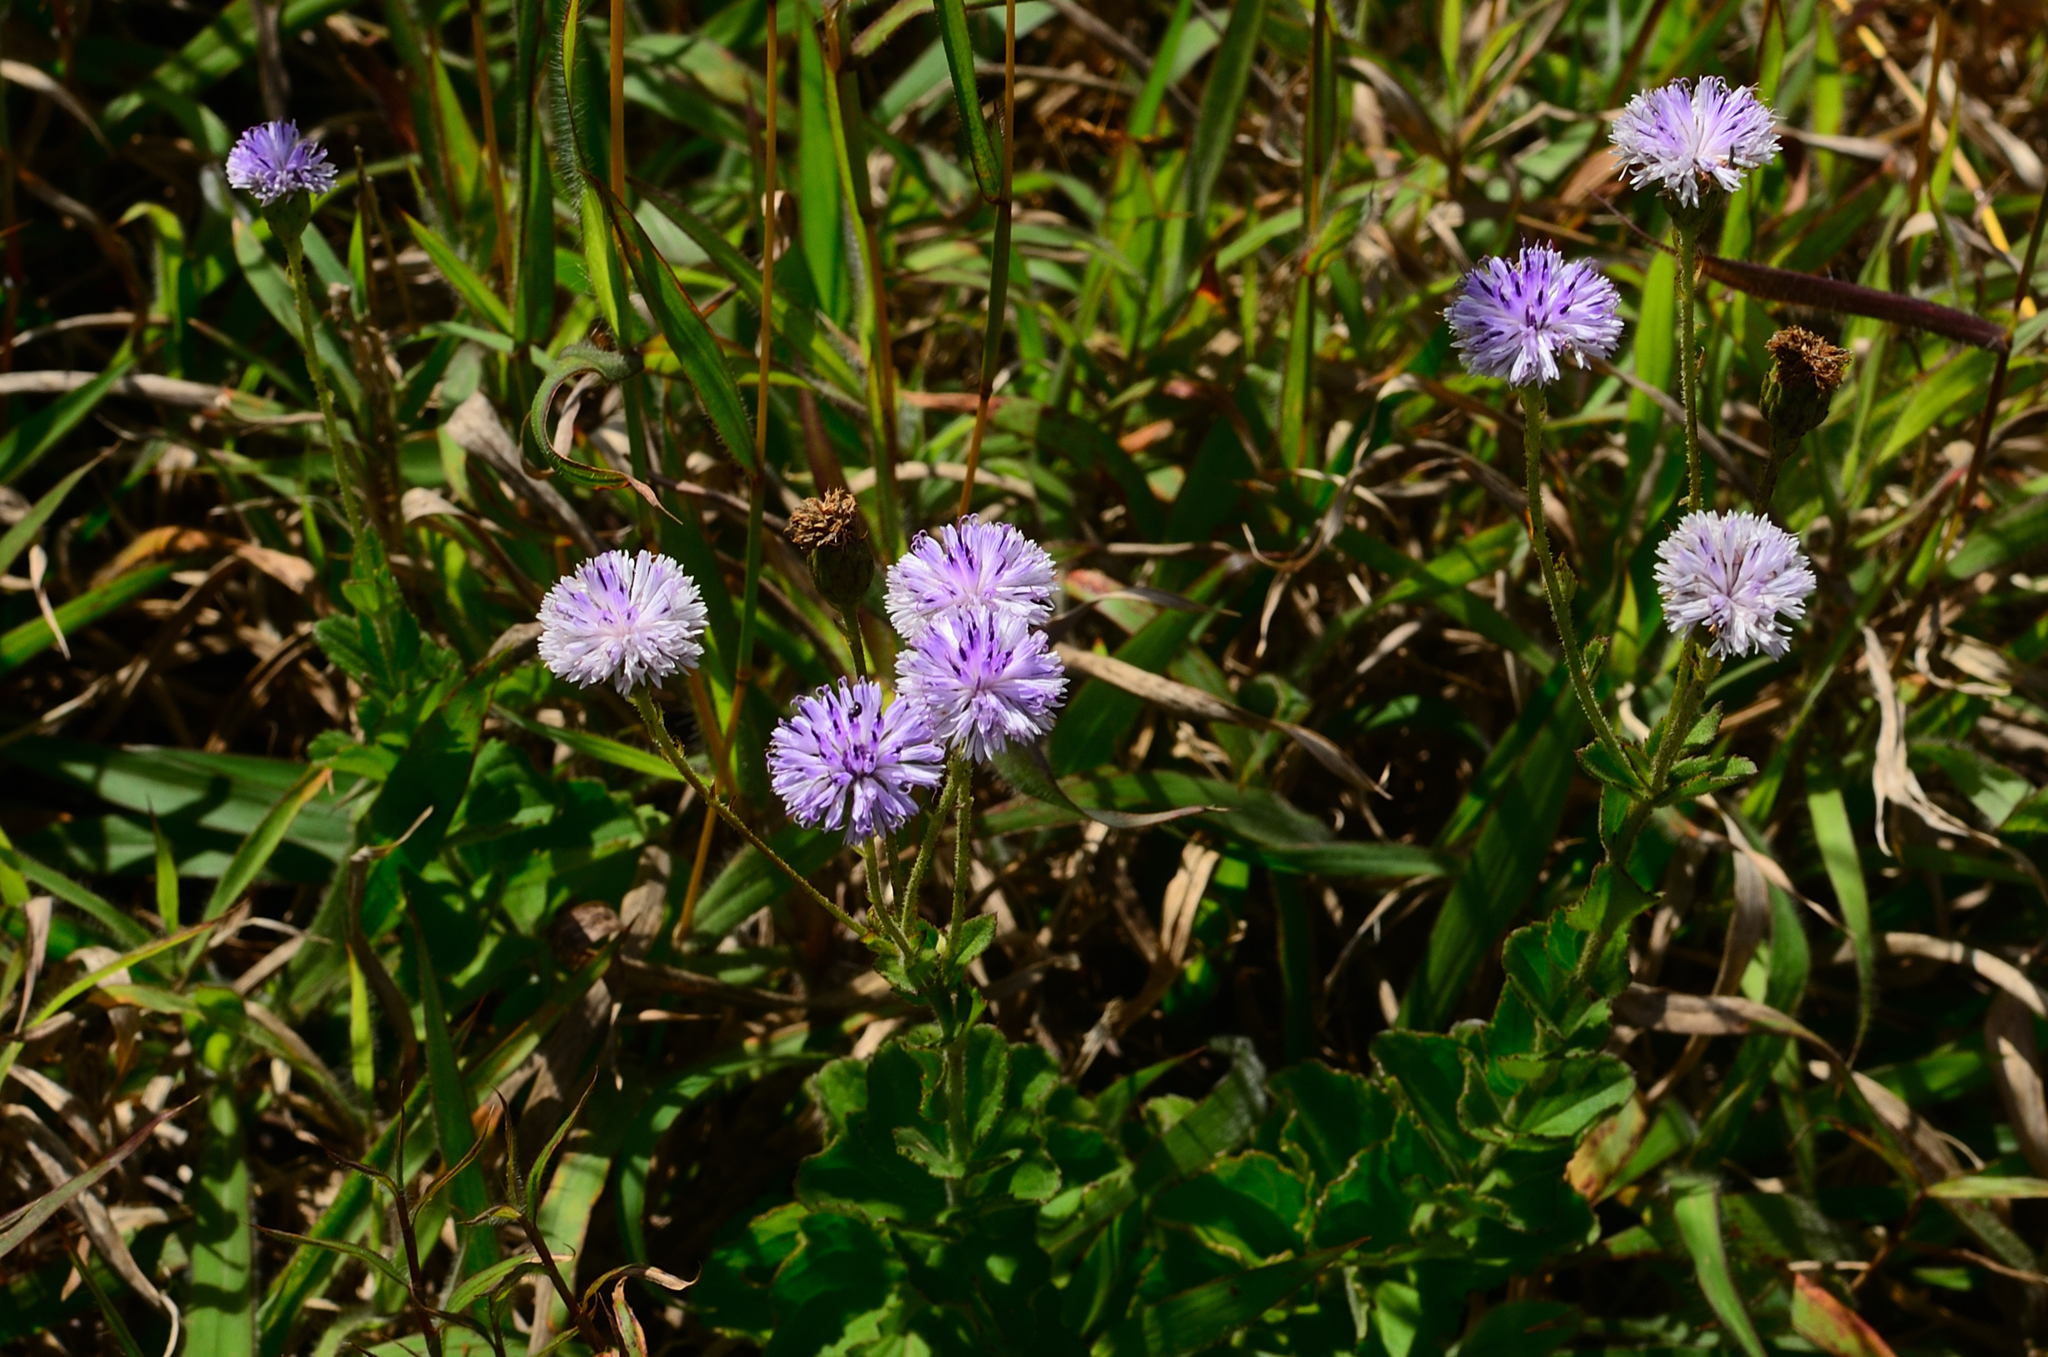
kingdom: Plantae
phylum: Tracheophyta
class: Magnoliopsida
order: Asterales
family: Asteraceae
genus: Adenoon
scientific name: Adenoon indicum
